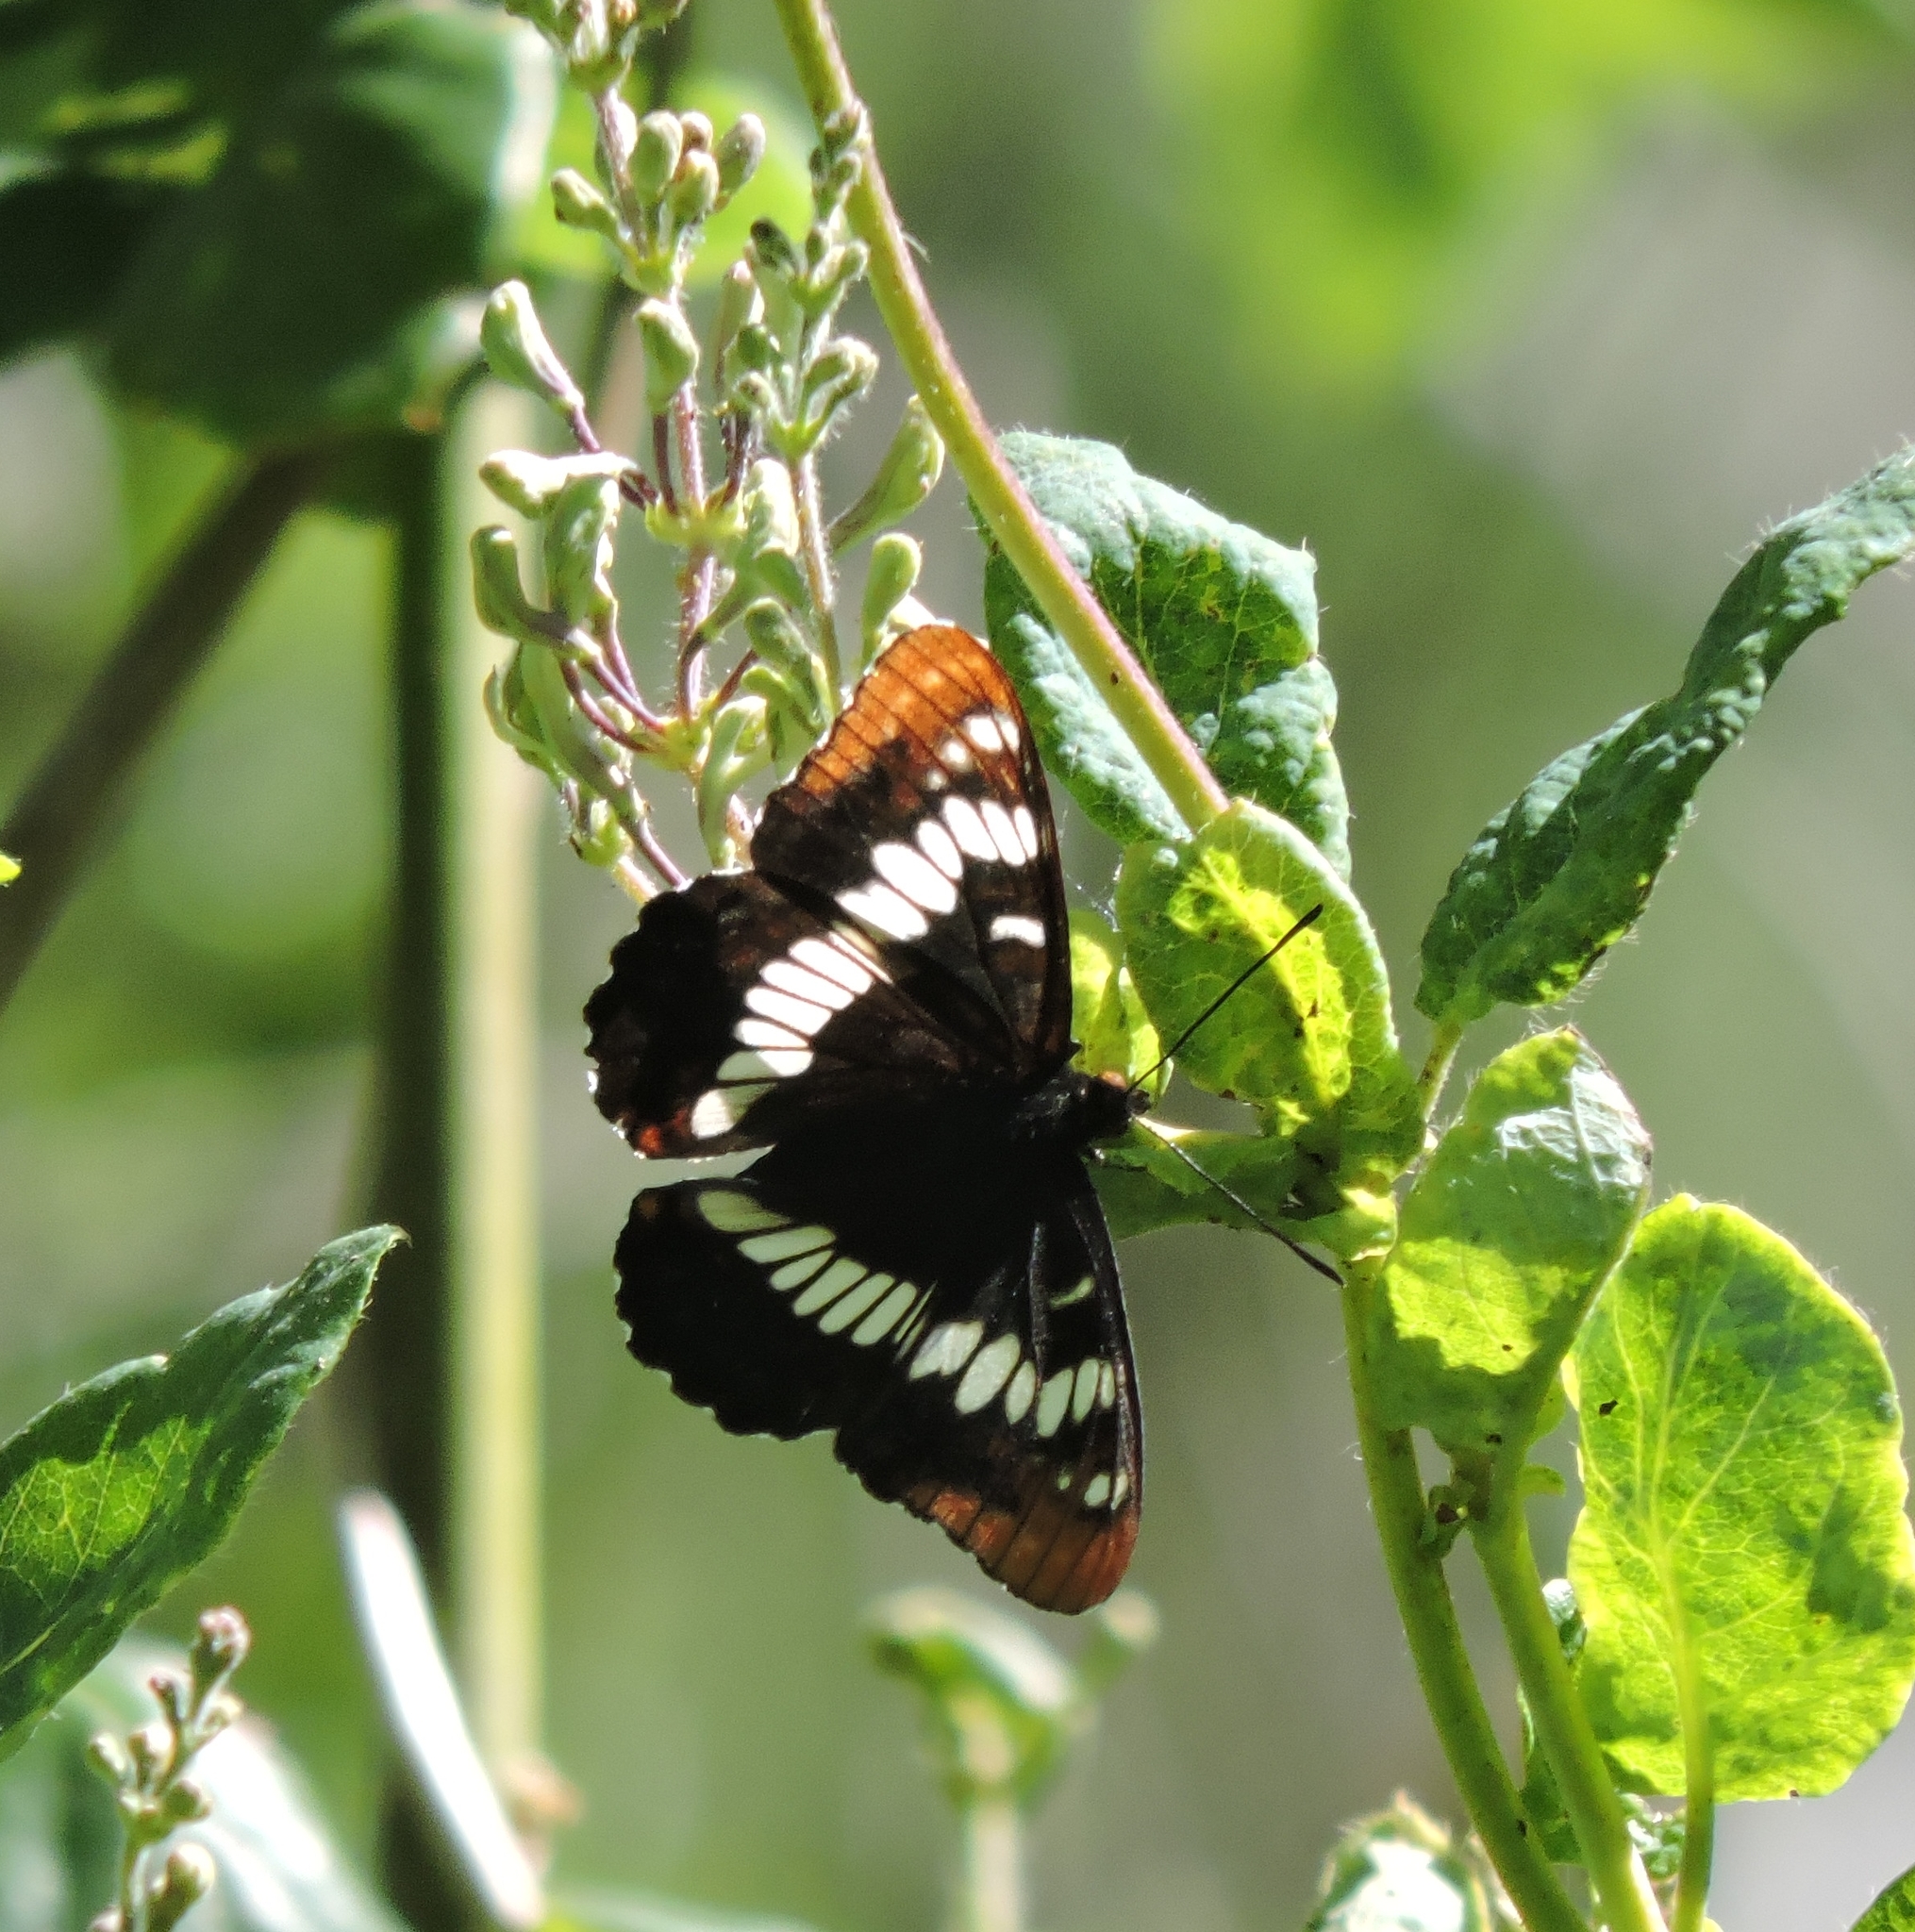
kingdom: Animalia
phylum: Arthropoda
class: Insecta
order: Lepidoptera
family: Nymphalidae
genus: Limenitis
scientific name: Limenitis lorquini
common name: Lorquin's admiral
